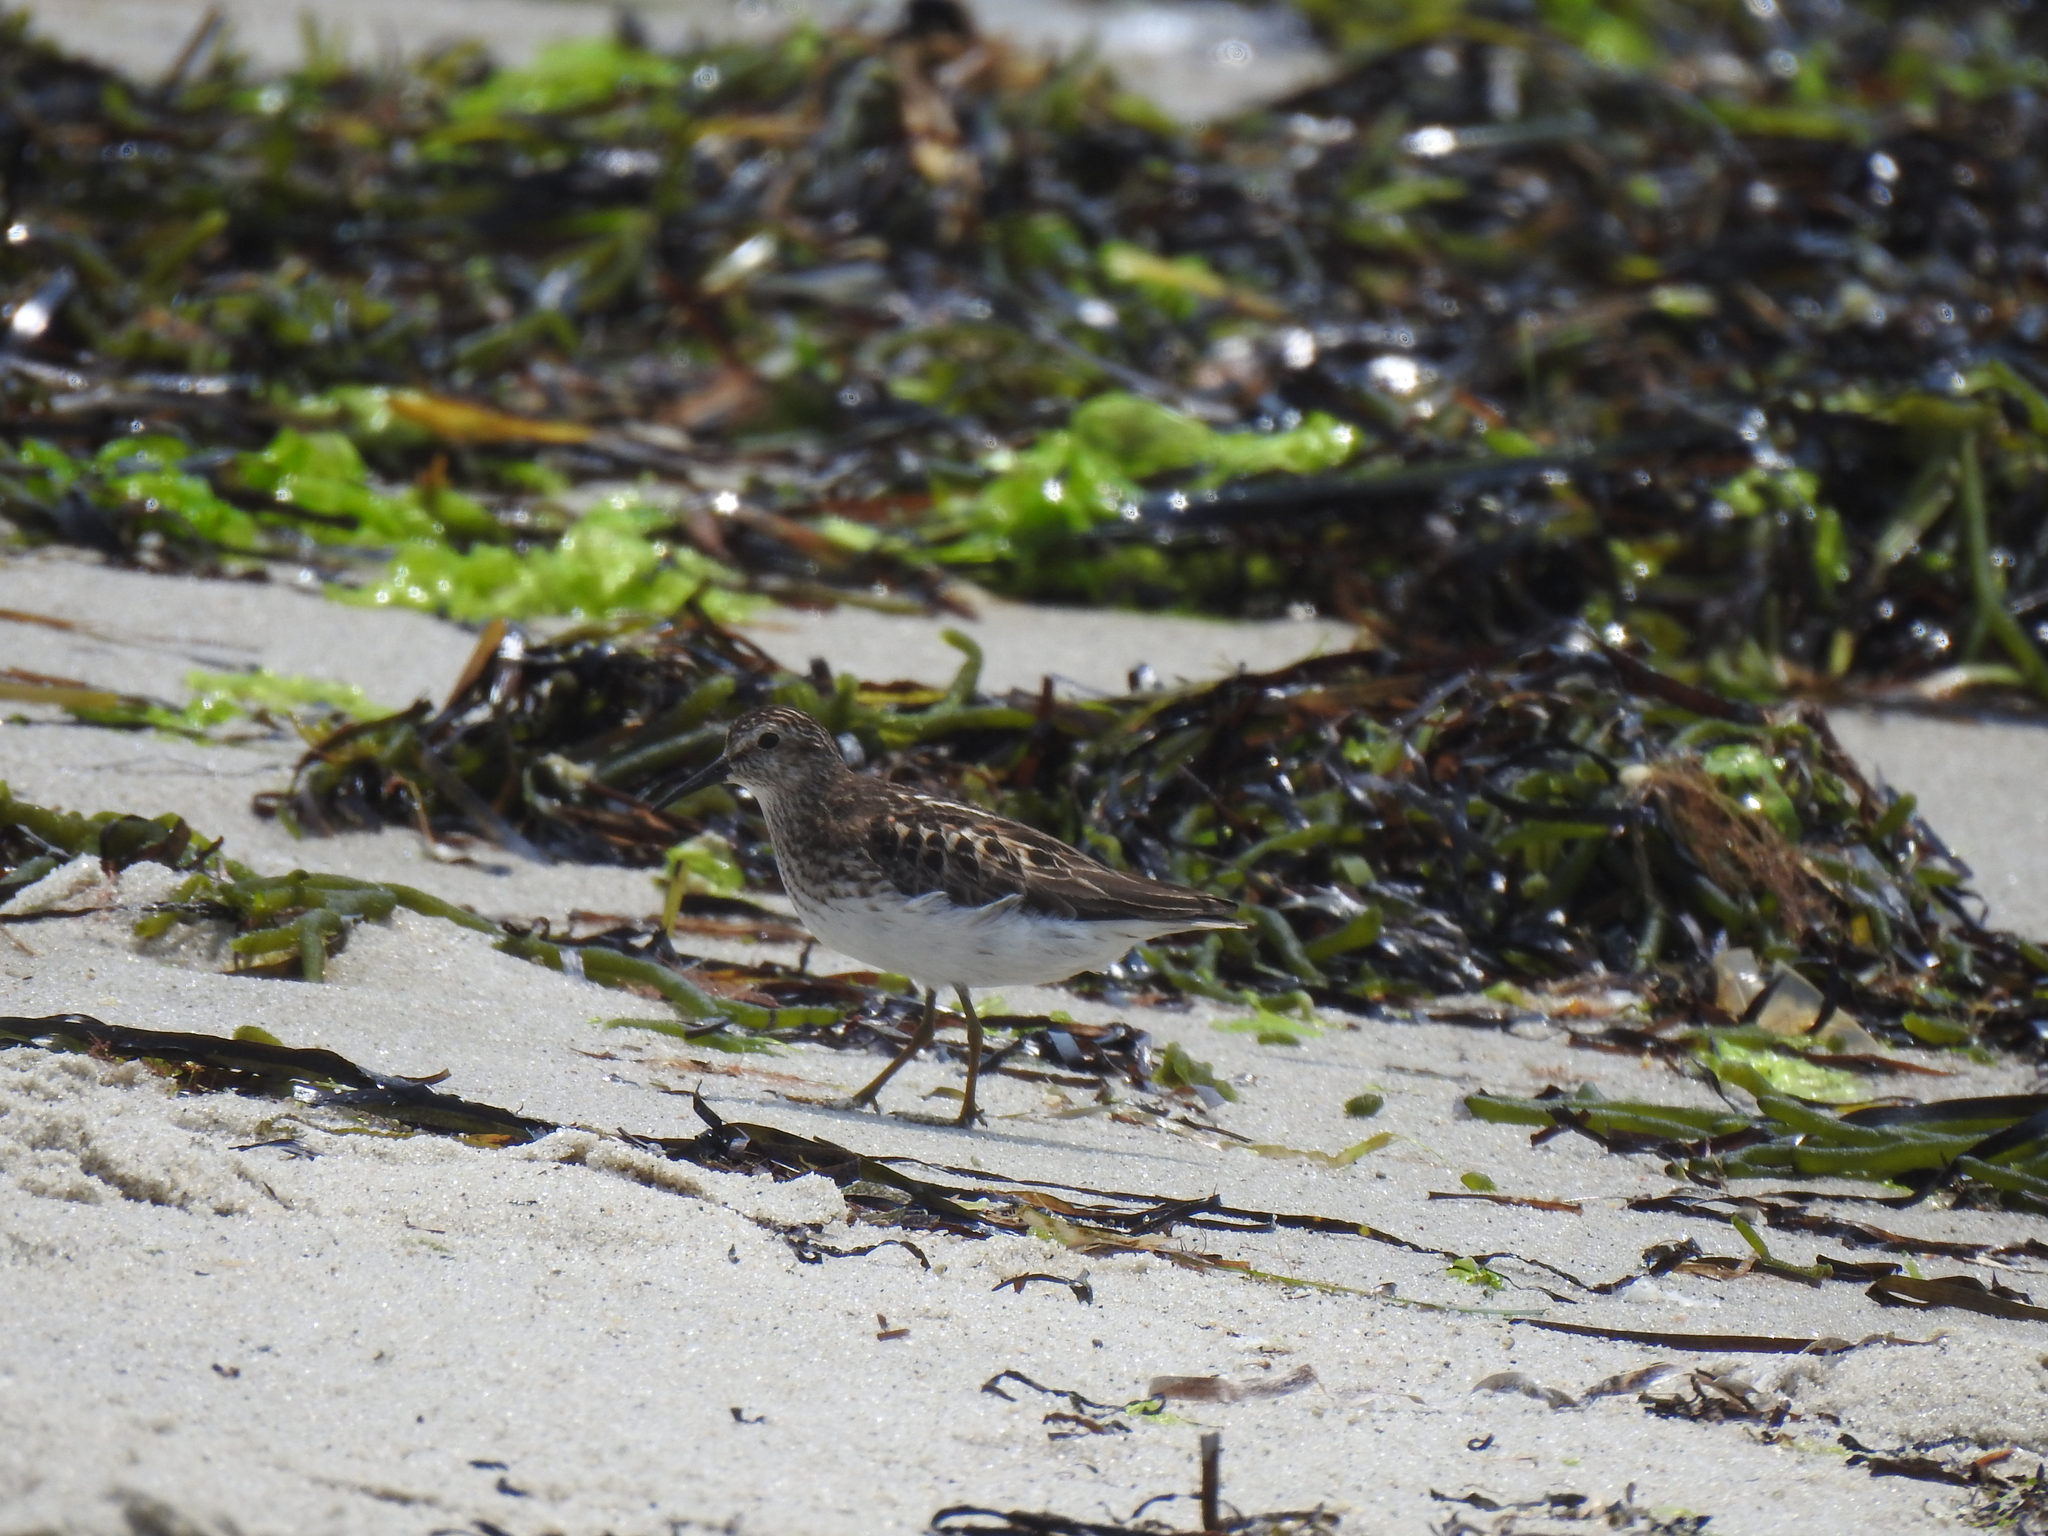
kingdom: Animalia
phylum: Chordata
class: Aves
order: Charadriiformes
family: Scolopacidae
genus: Calidris
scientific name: Calidris minutilla
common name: Least sandpiper
